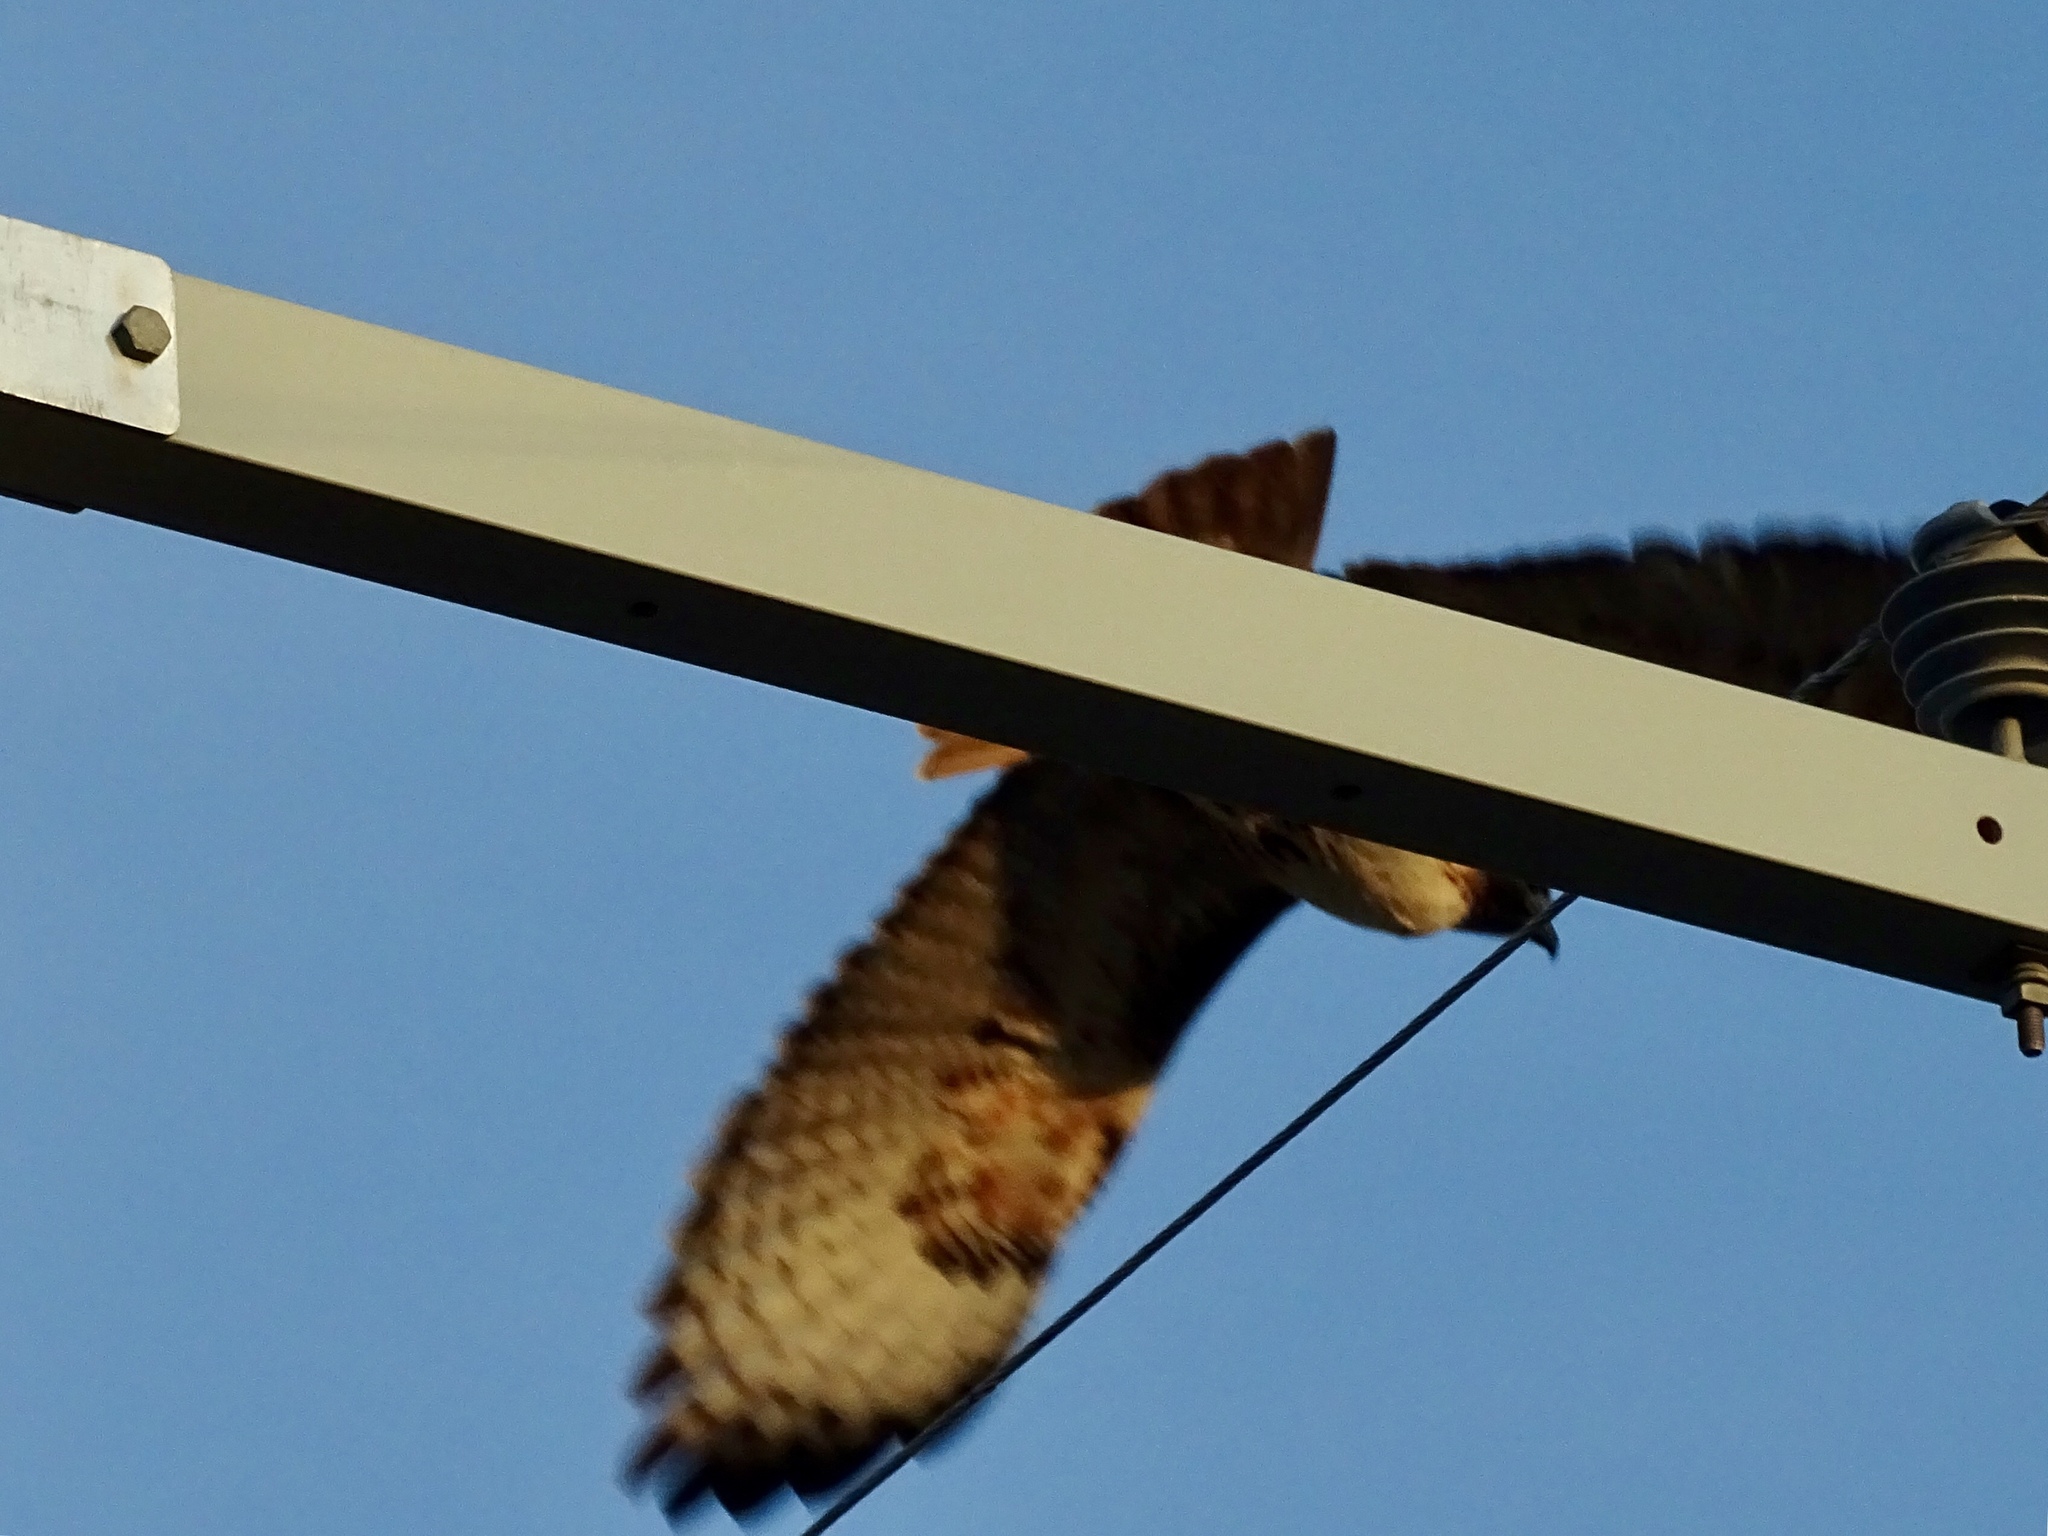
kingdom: Animalia
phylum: Chordata
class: Aves
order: Accipitriformes
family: Accipitridae
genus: Buteo
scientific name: Buteo jamaicensis
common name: Red-tailed hawk
